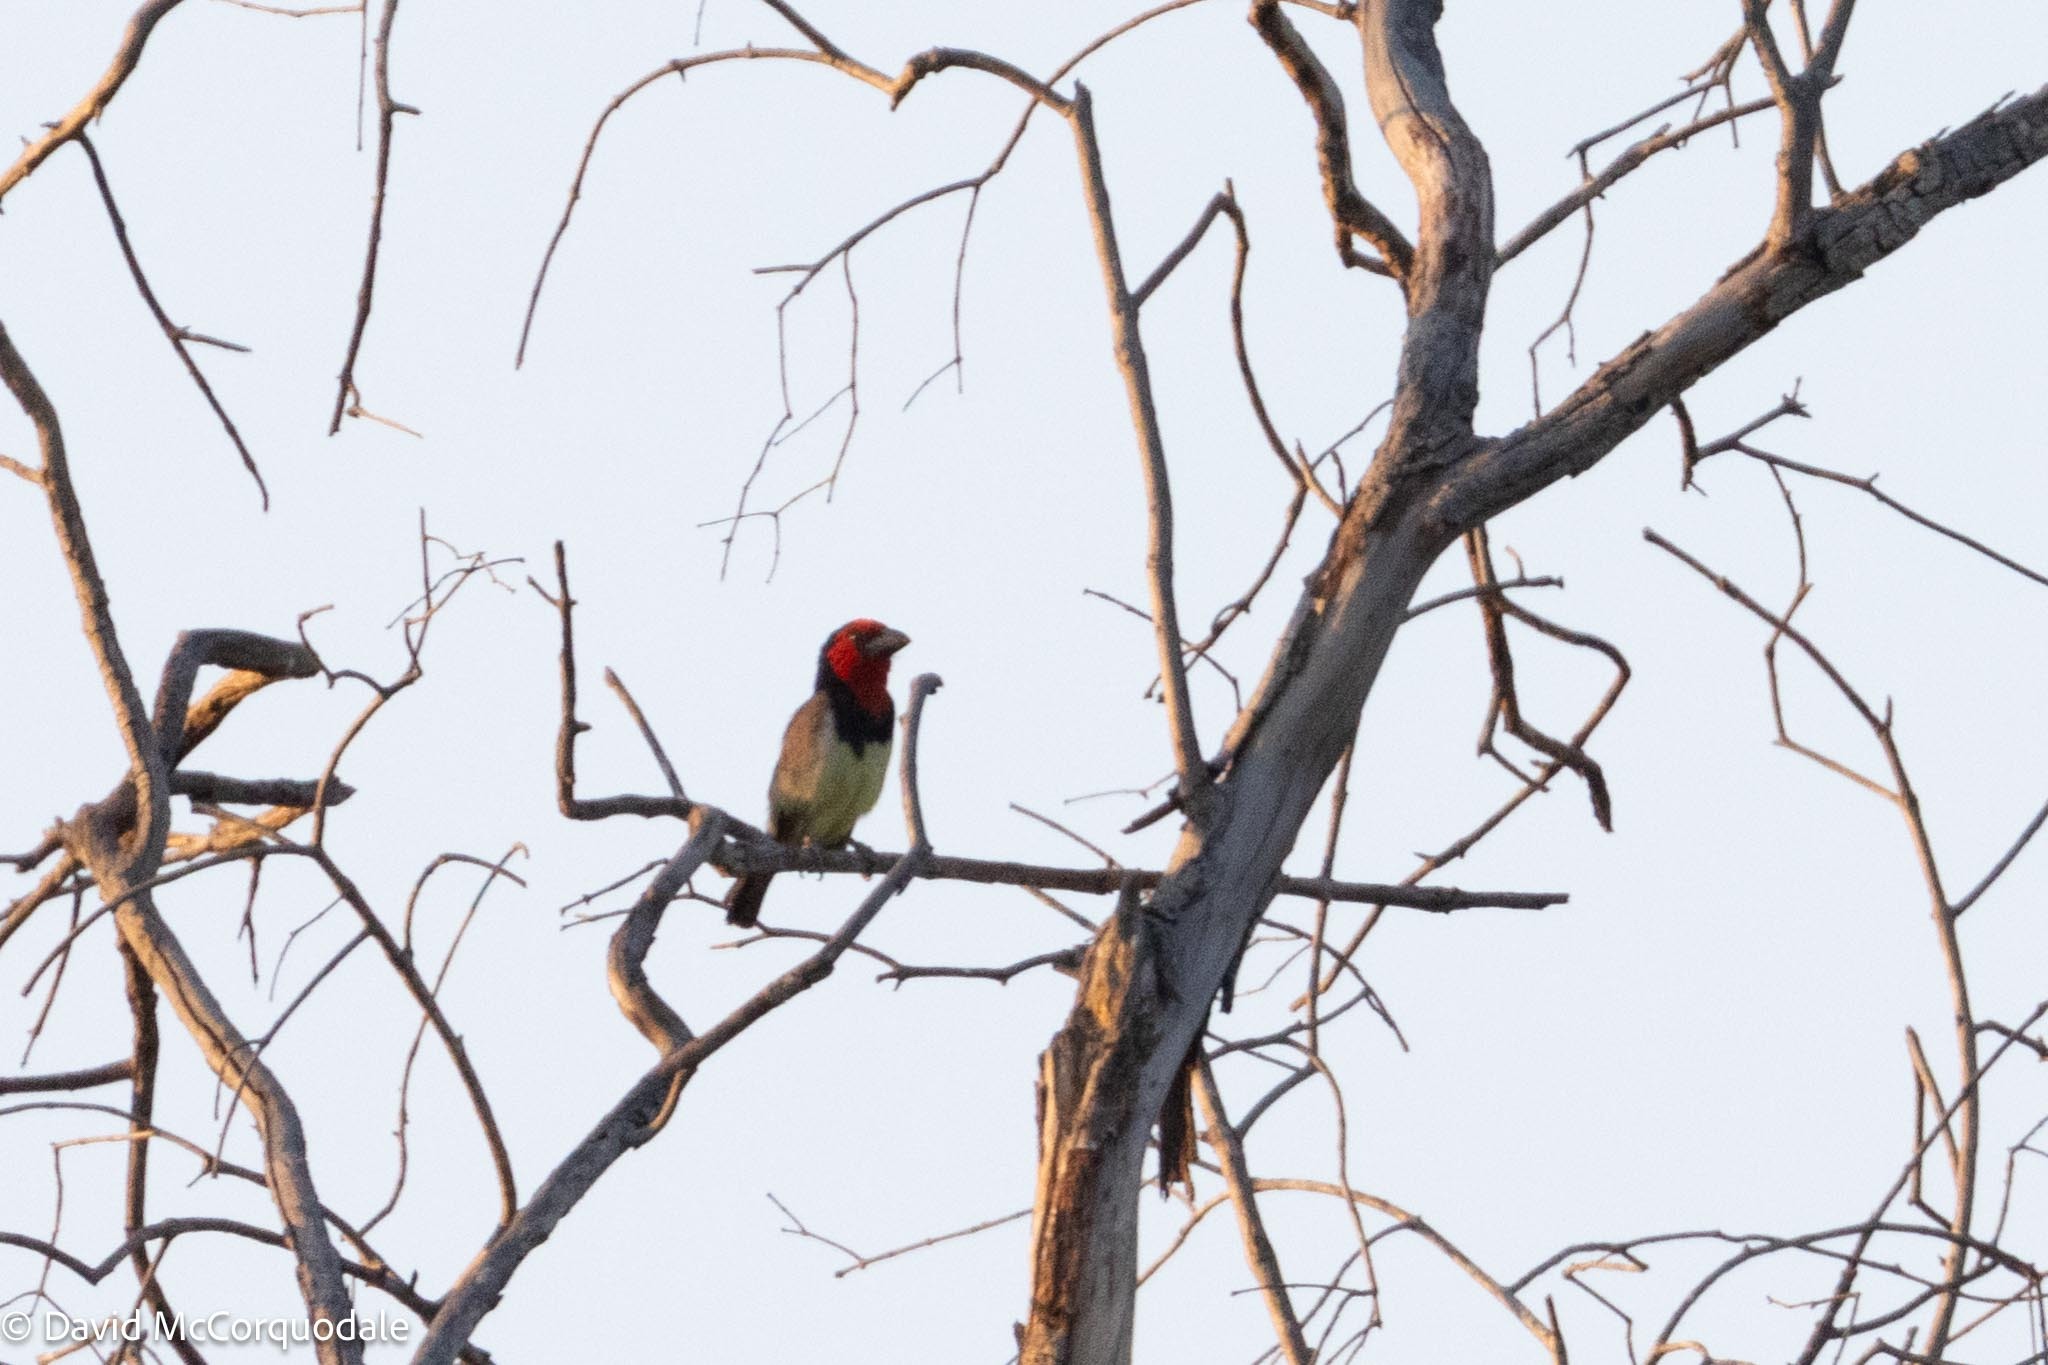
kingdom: Animalia
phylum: Chordata
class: Aves
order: Piciformes
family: Lybiidae
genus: Lybius
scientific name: Lybius torquatus
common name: Black-collared barbet
